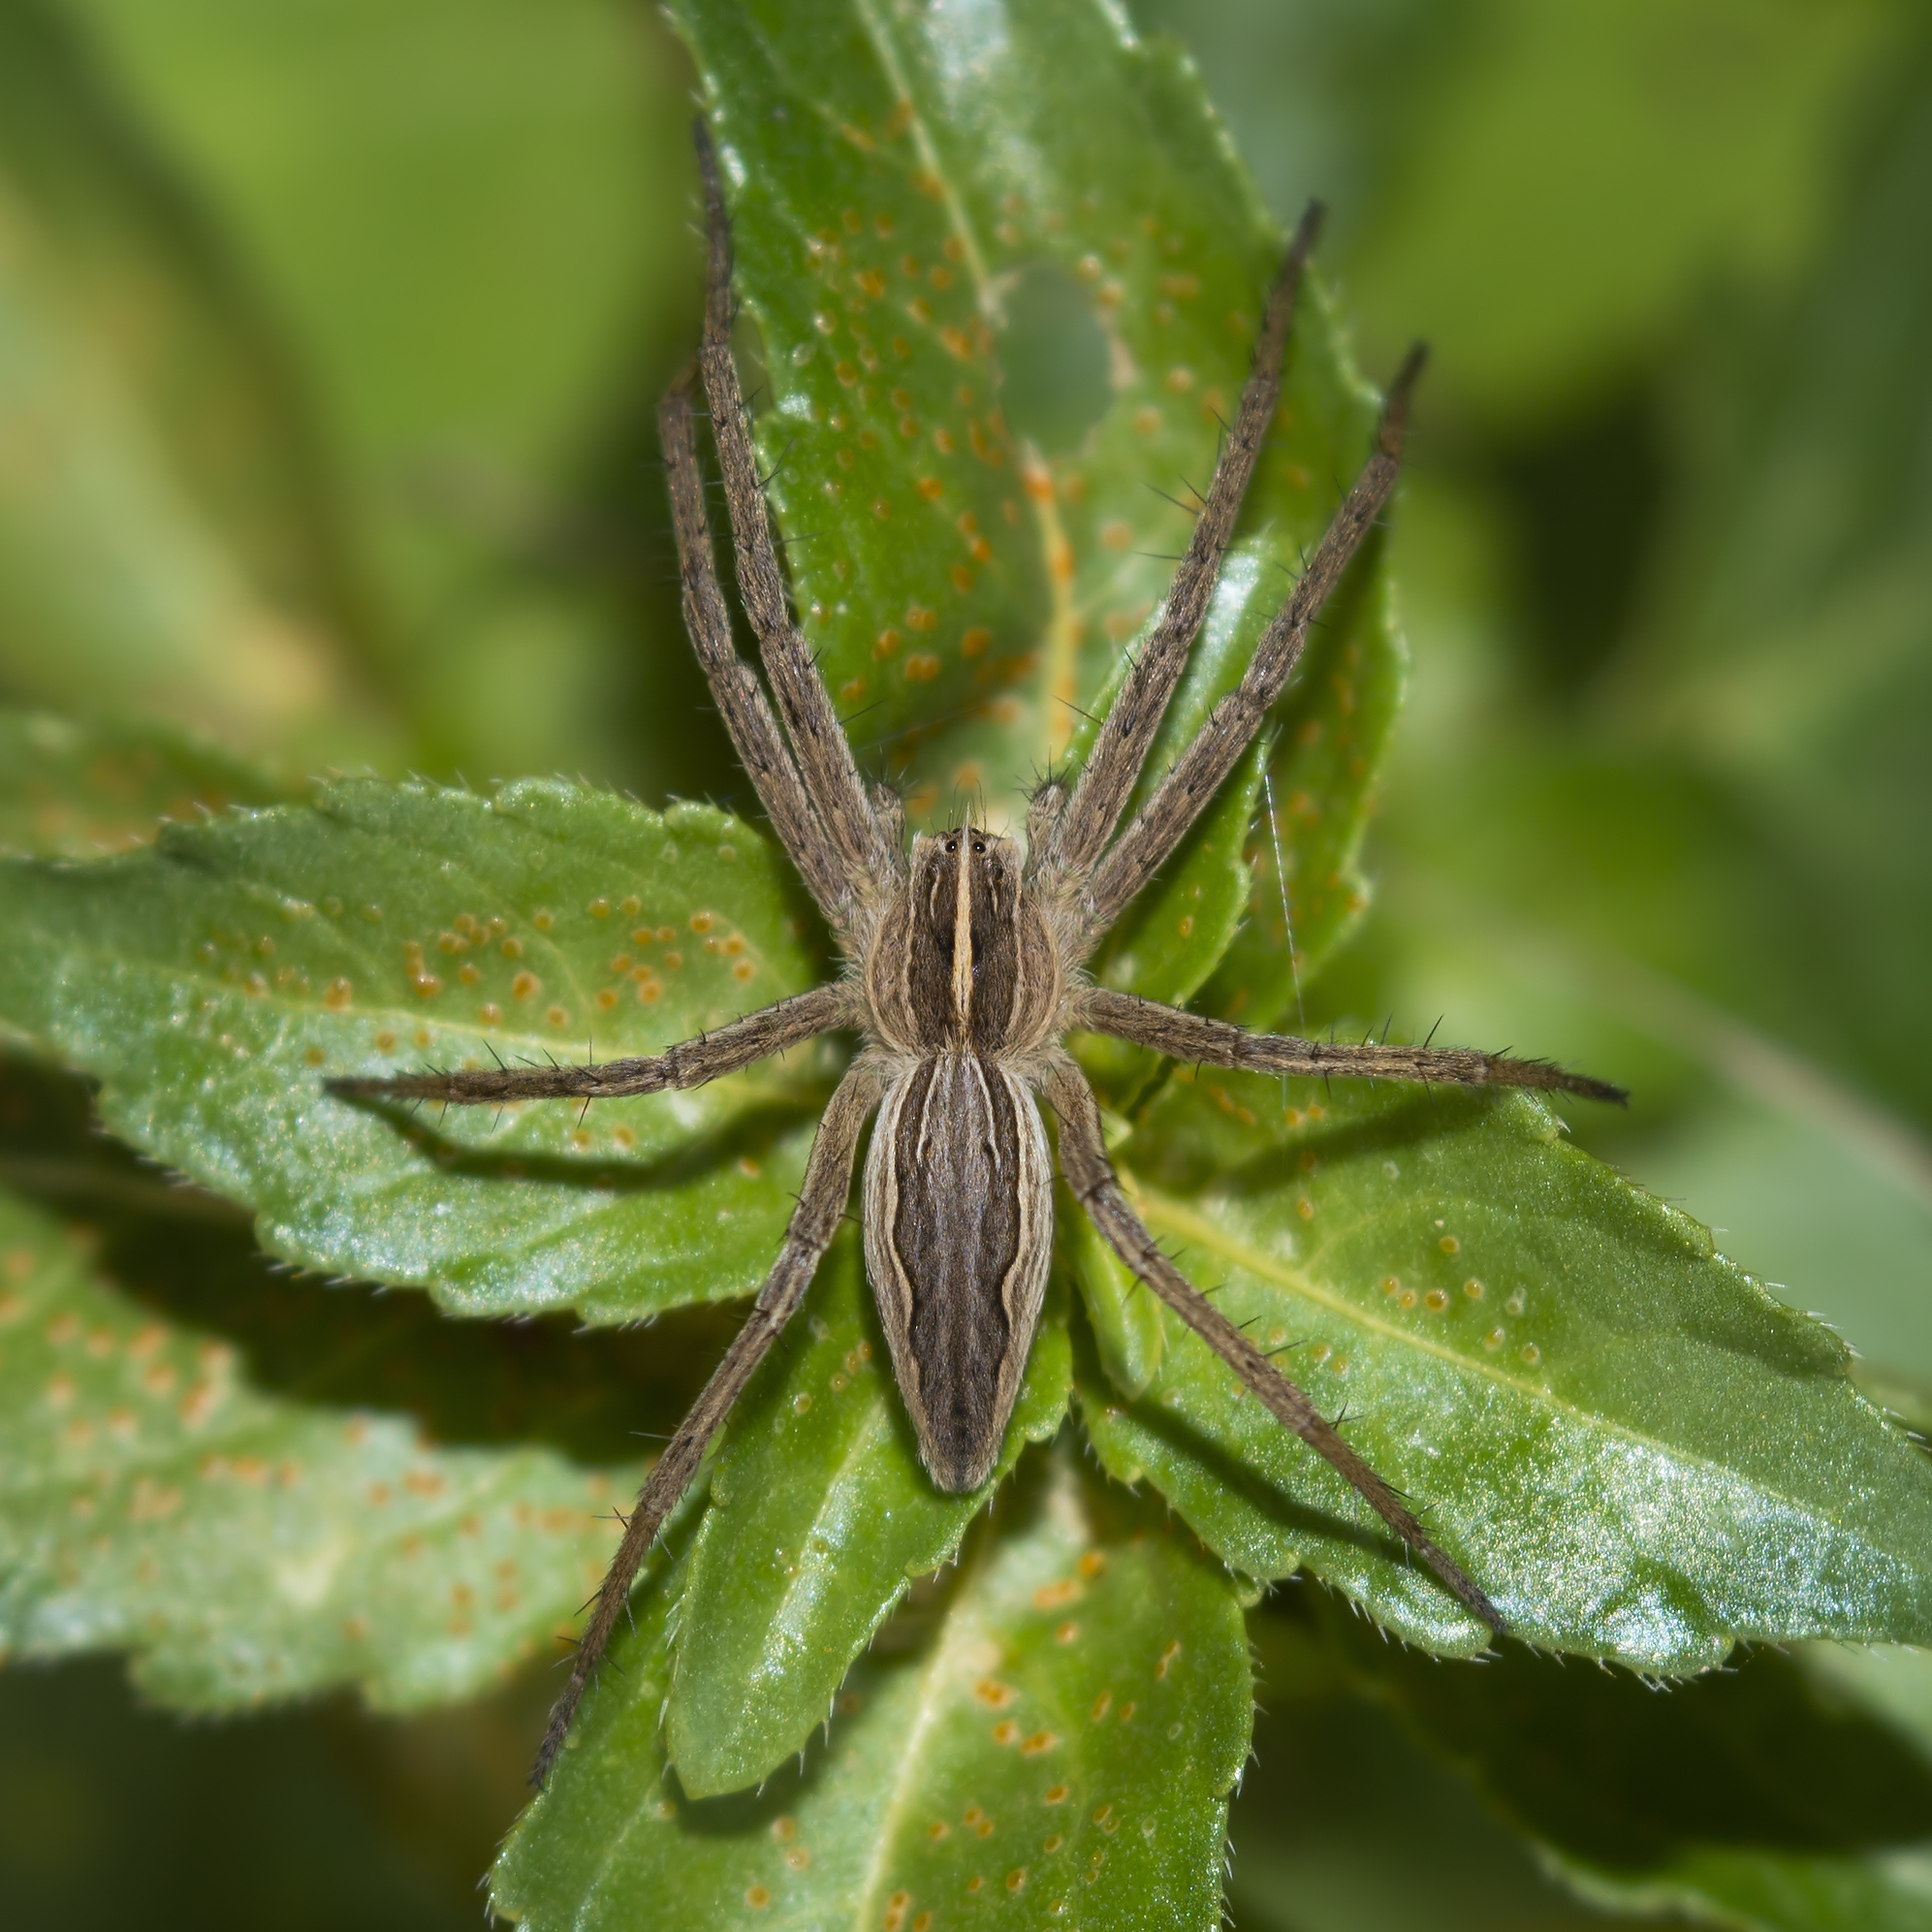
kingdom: Animalia
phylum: Arthropoda
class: Arachnida
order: Araneae
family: Pisauridae
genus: Pisaura
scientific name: Pisaura mirabilis
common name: Tent spider
